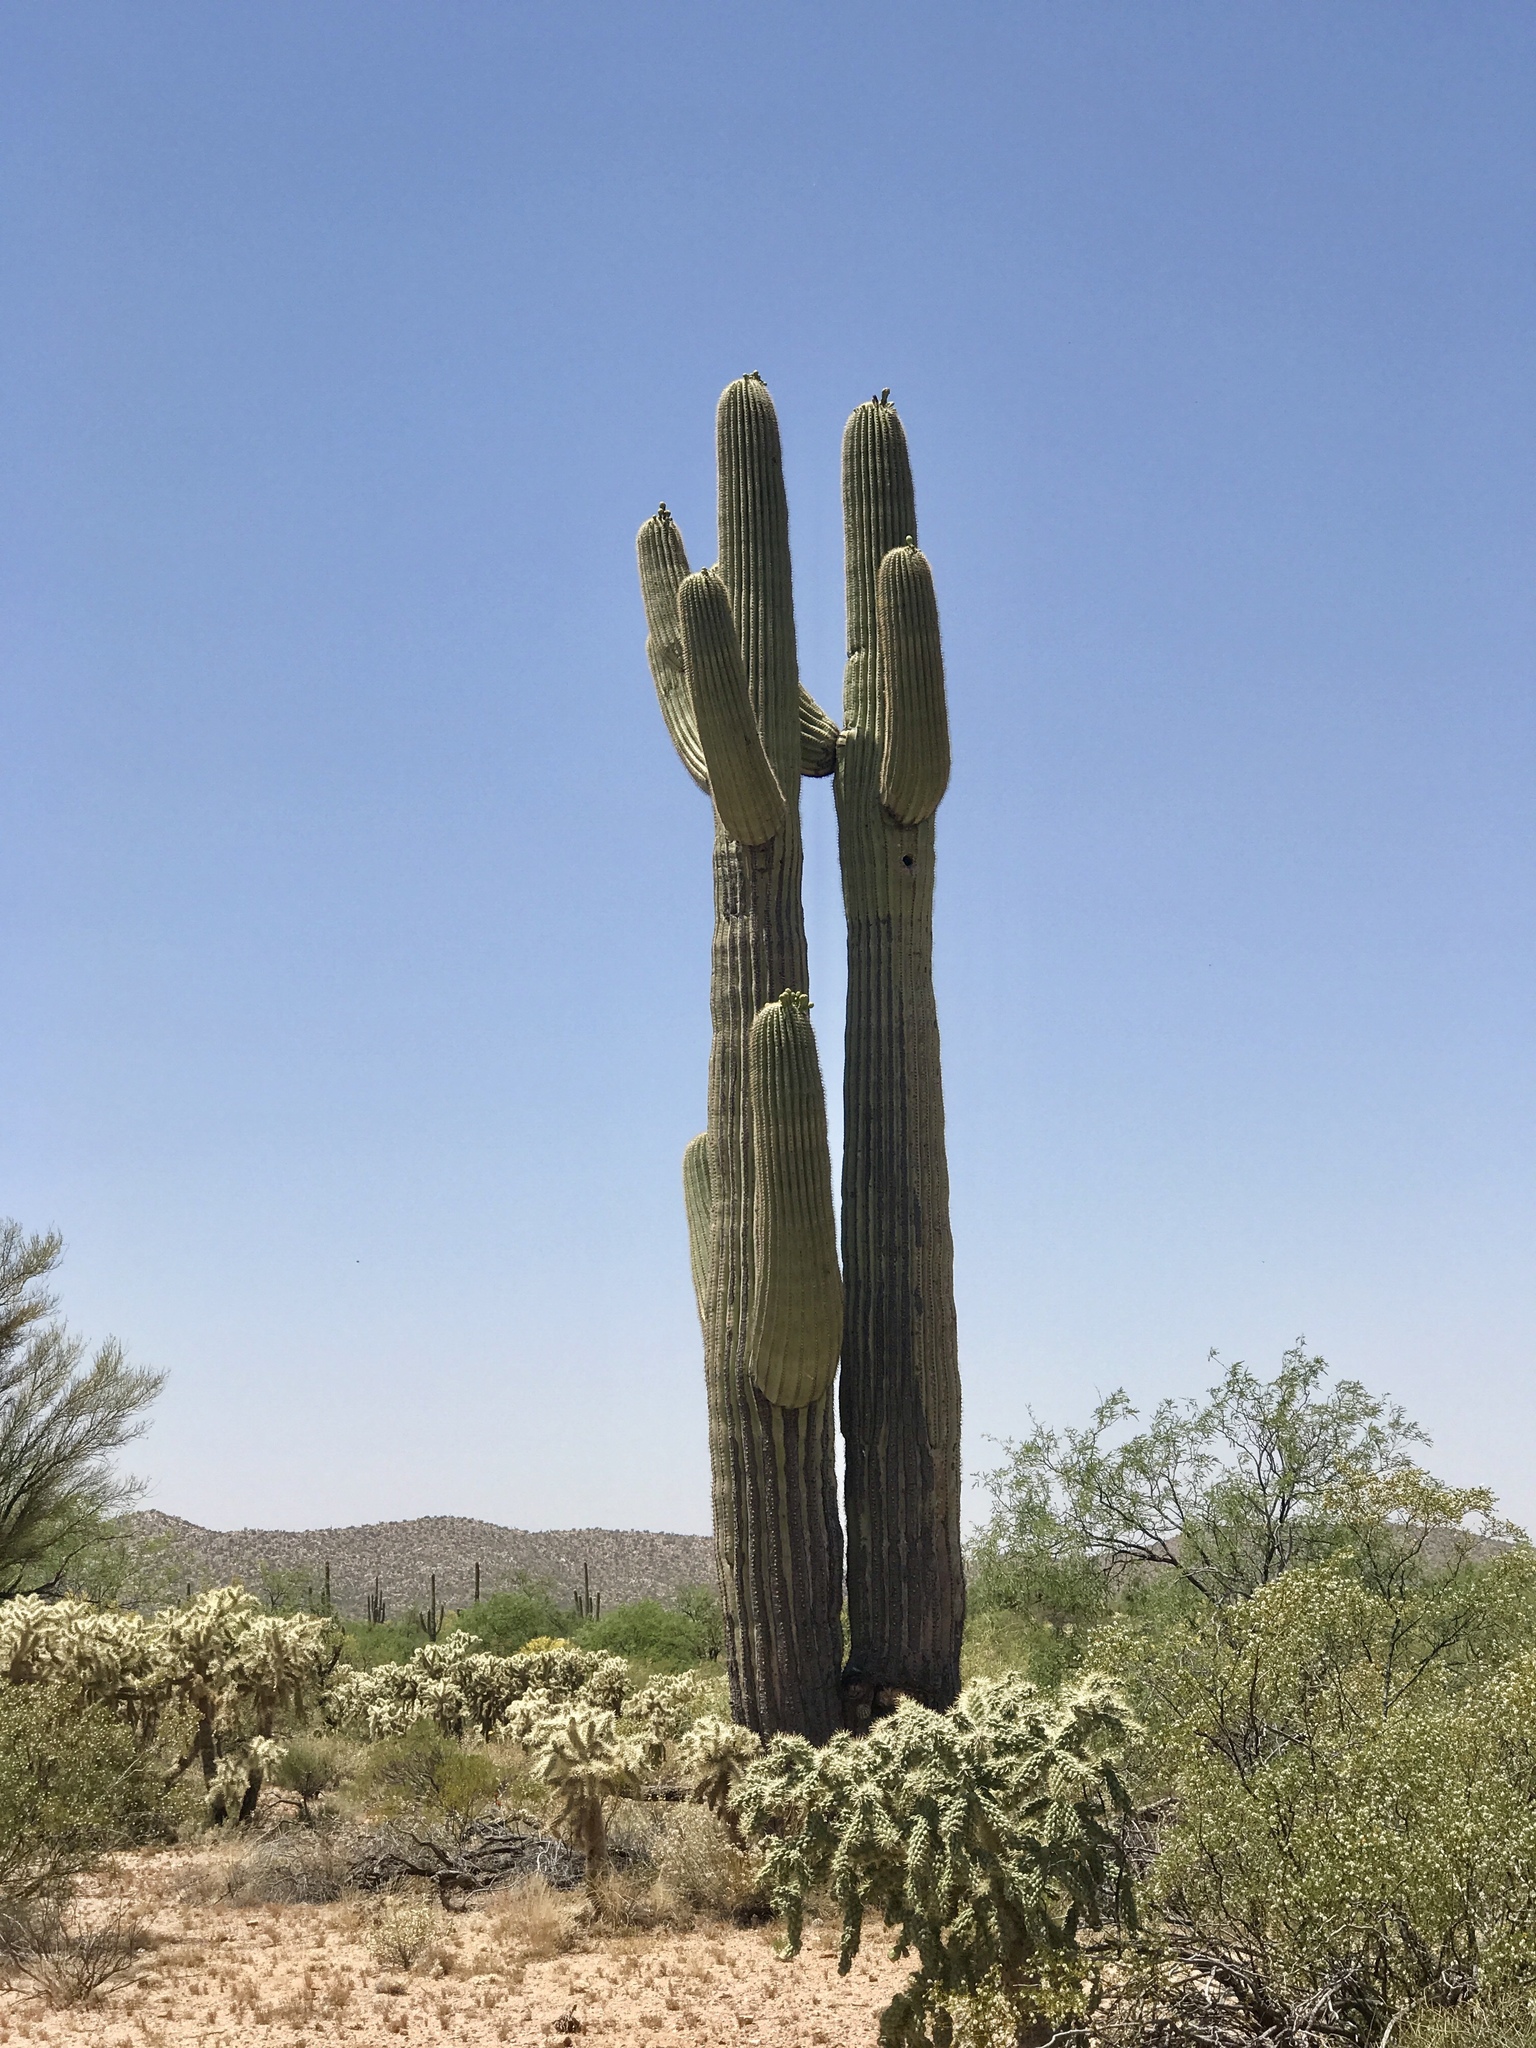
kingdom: Plantae
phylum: Tracheophyta
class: Magnoliopsida
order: Caryophyllales
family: Cactaceae
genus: Carnegiea
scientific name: Carnegiea gigantea
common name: Saguaro
